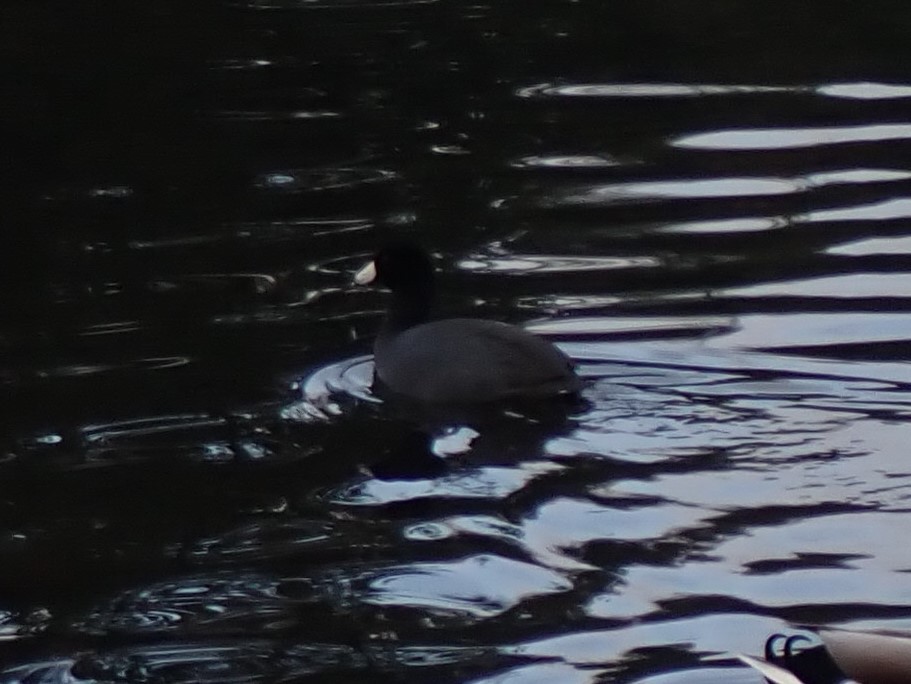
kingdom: Animalia
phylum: Chordata
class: Aves
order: Gruiformes
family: Rallidae
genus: Fulica
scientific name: Fulica americana
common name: American coot
